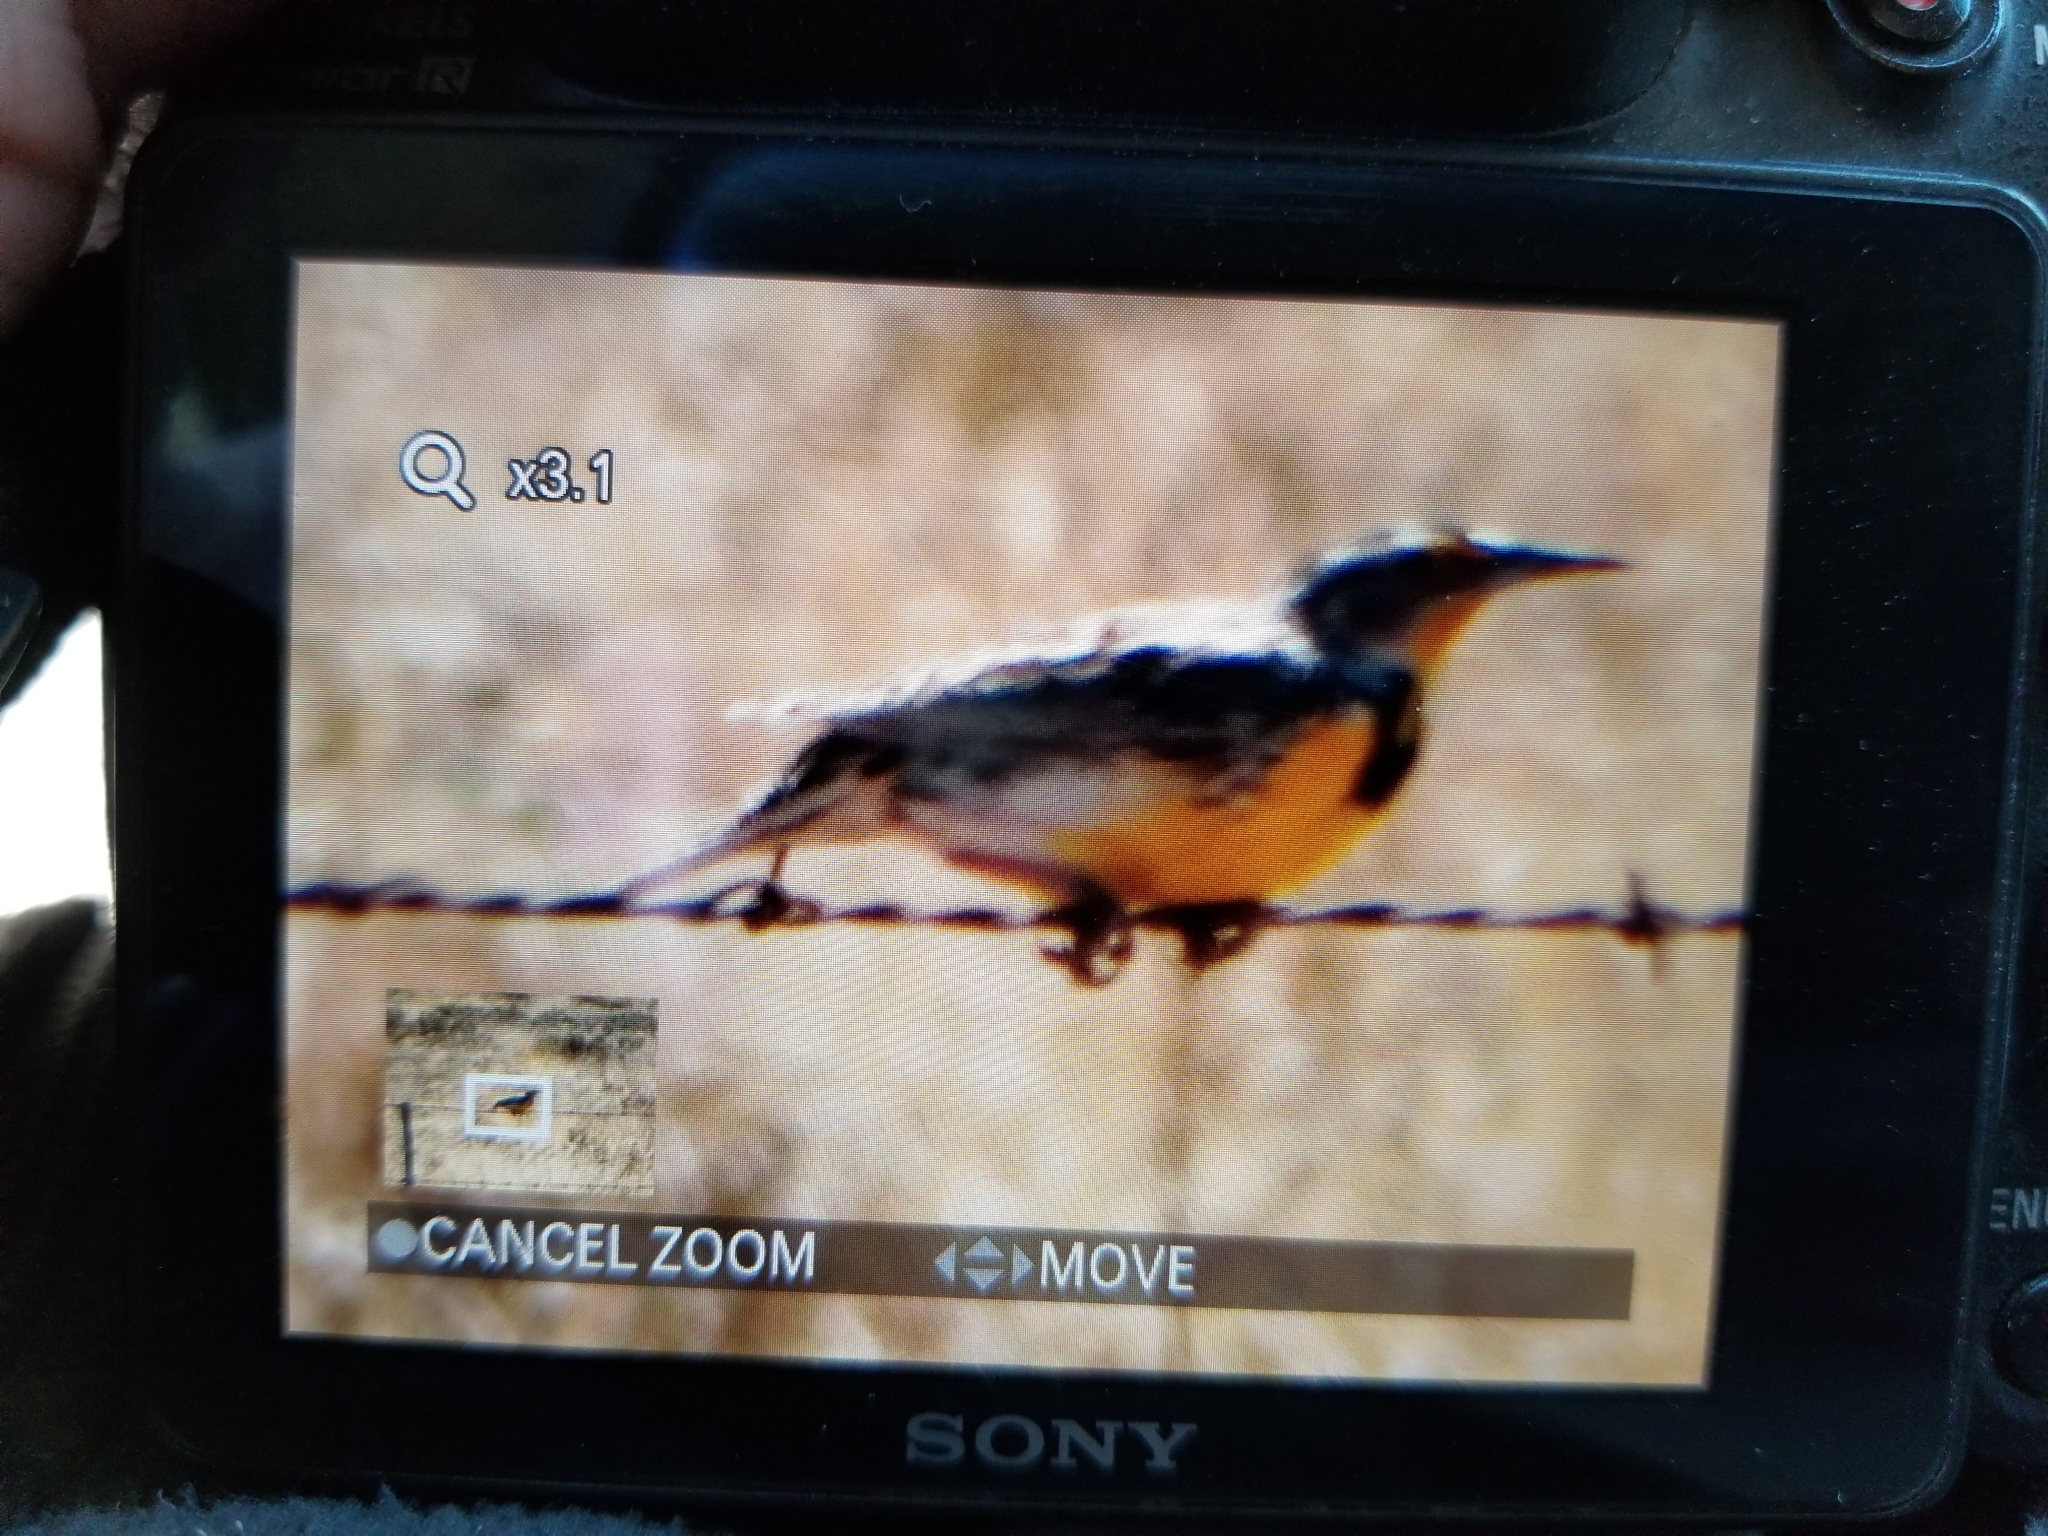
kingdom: Animalia
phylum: Chordata
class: Aves
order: Passeriformes
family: Icteridae
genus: Sturnella
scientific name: Sturnella neglecta
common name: Western meadowlark
